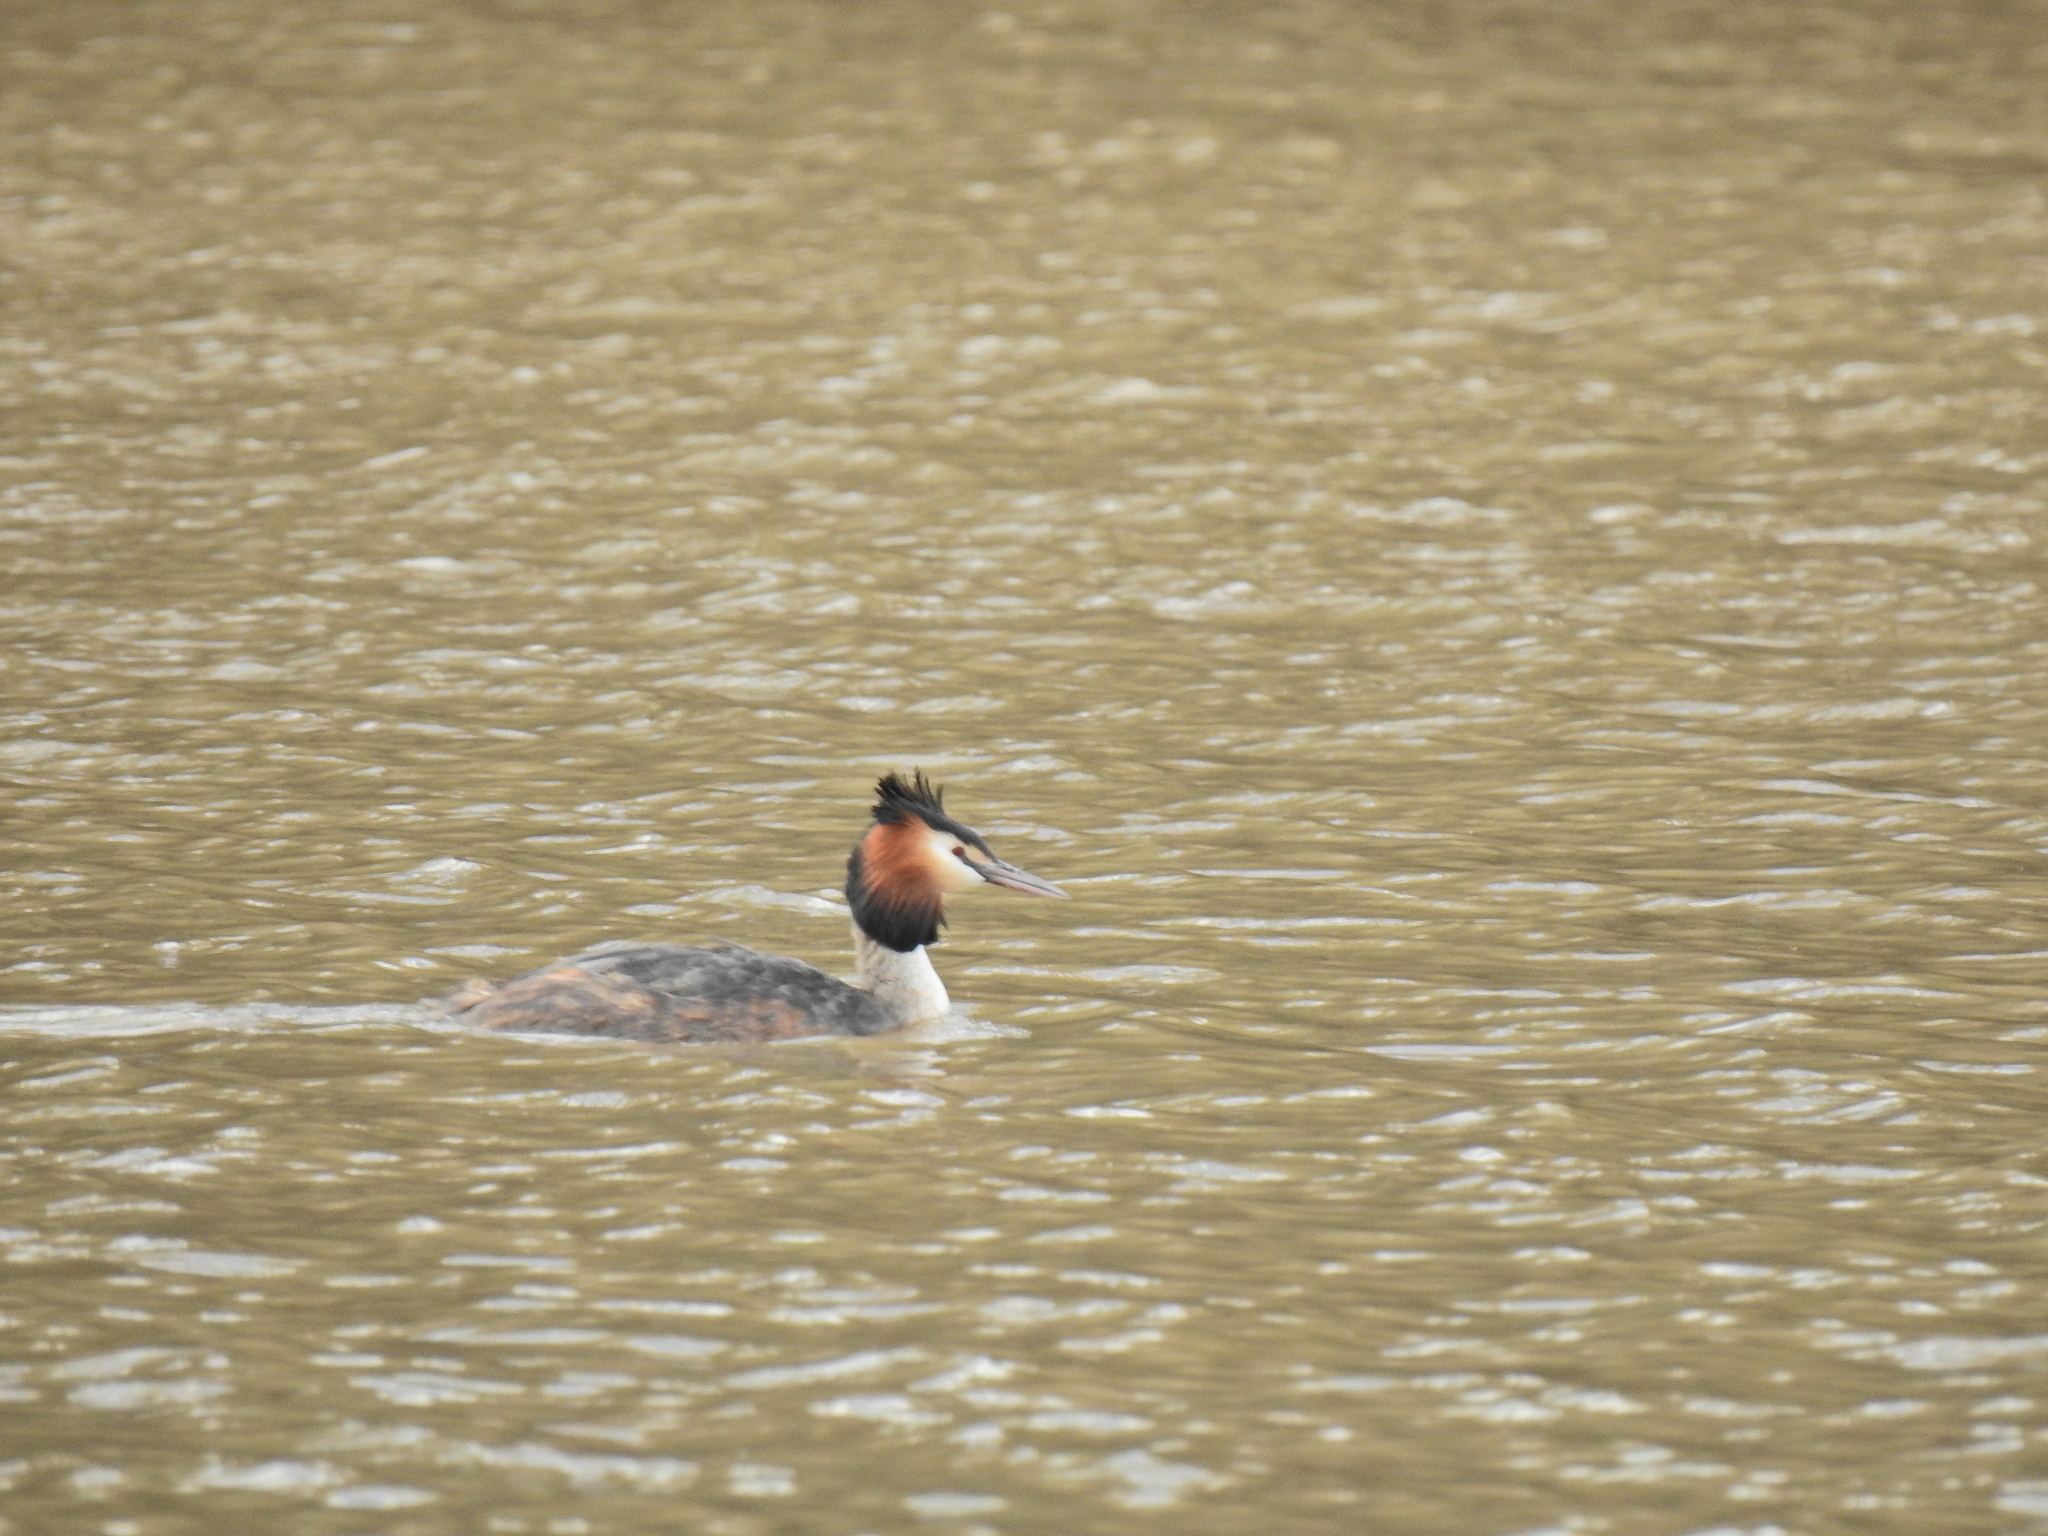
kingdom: Animalia
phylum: Chordata
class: Aves
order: Podicipediformes
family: Podicipedidae
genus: Podiceps
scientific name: Podiceps cristatus
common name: Great crested grebe
